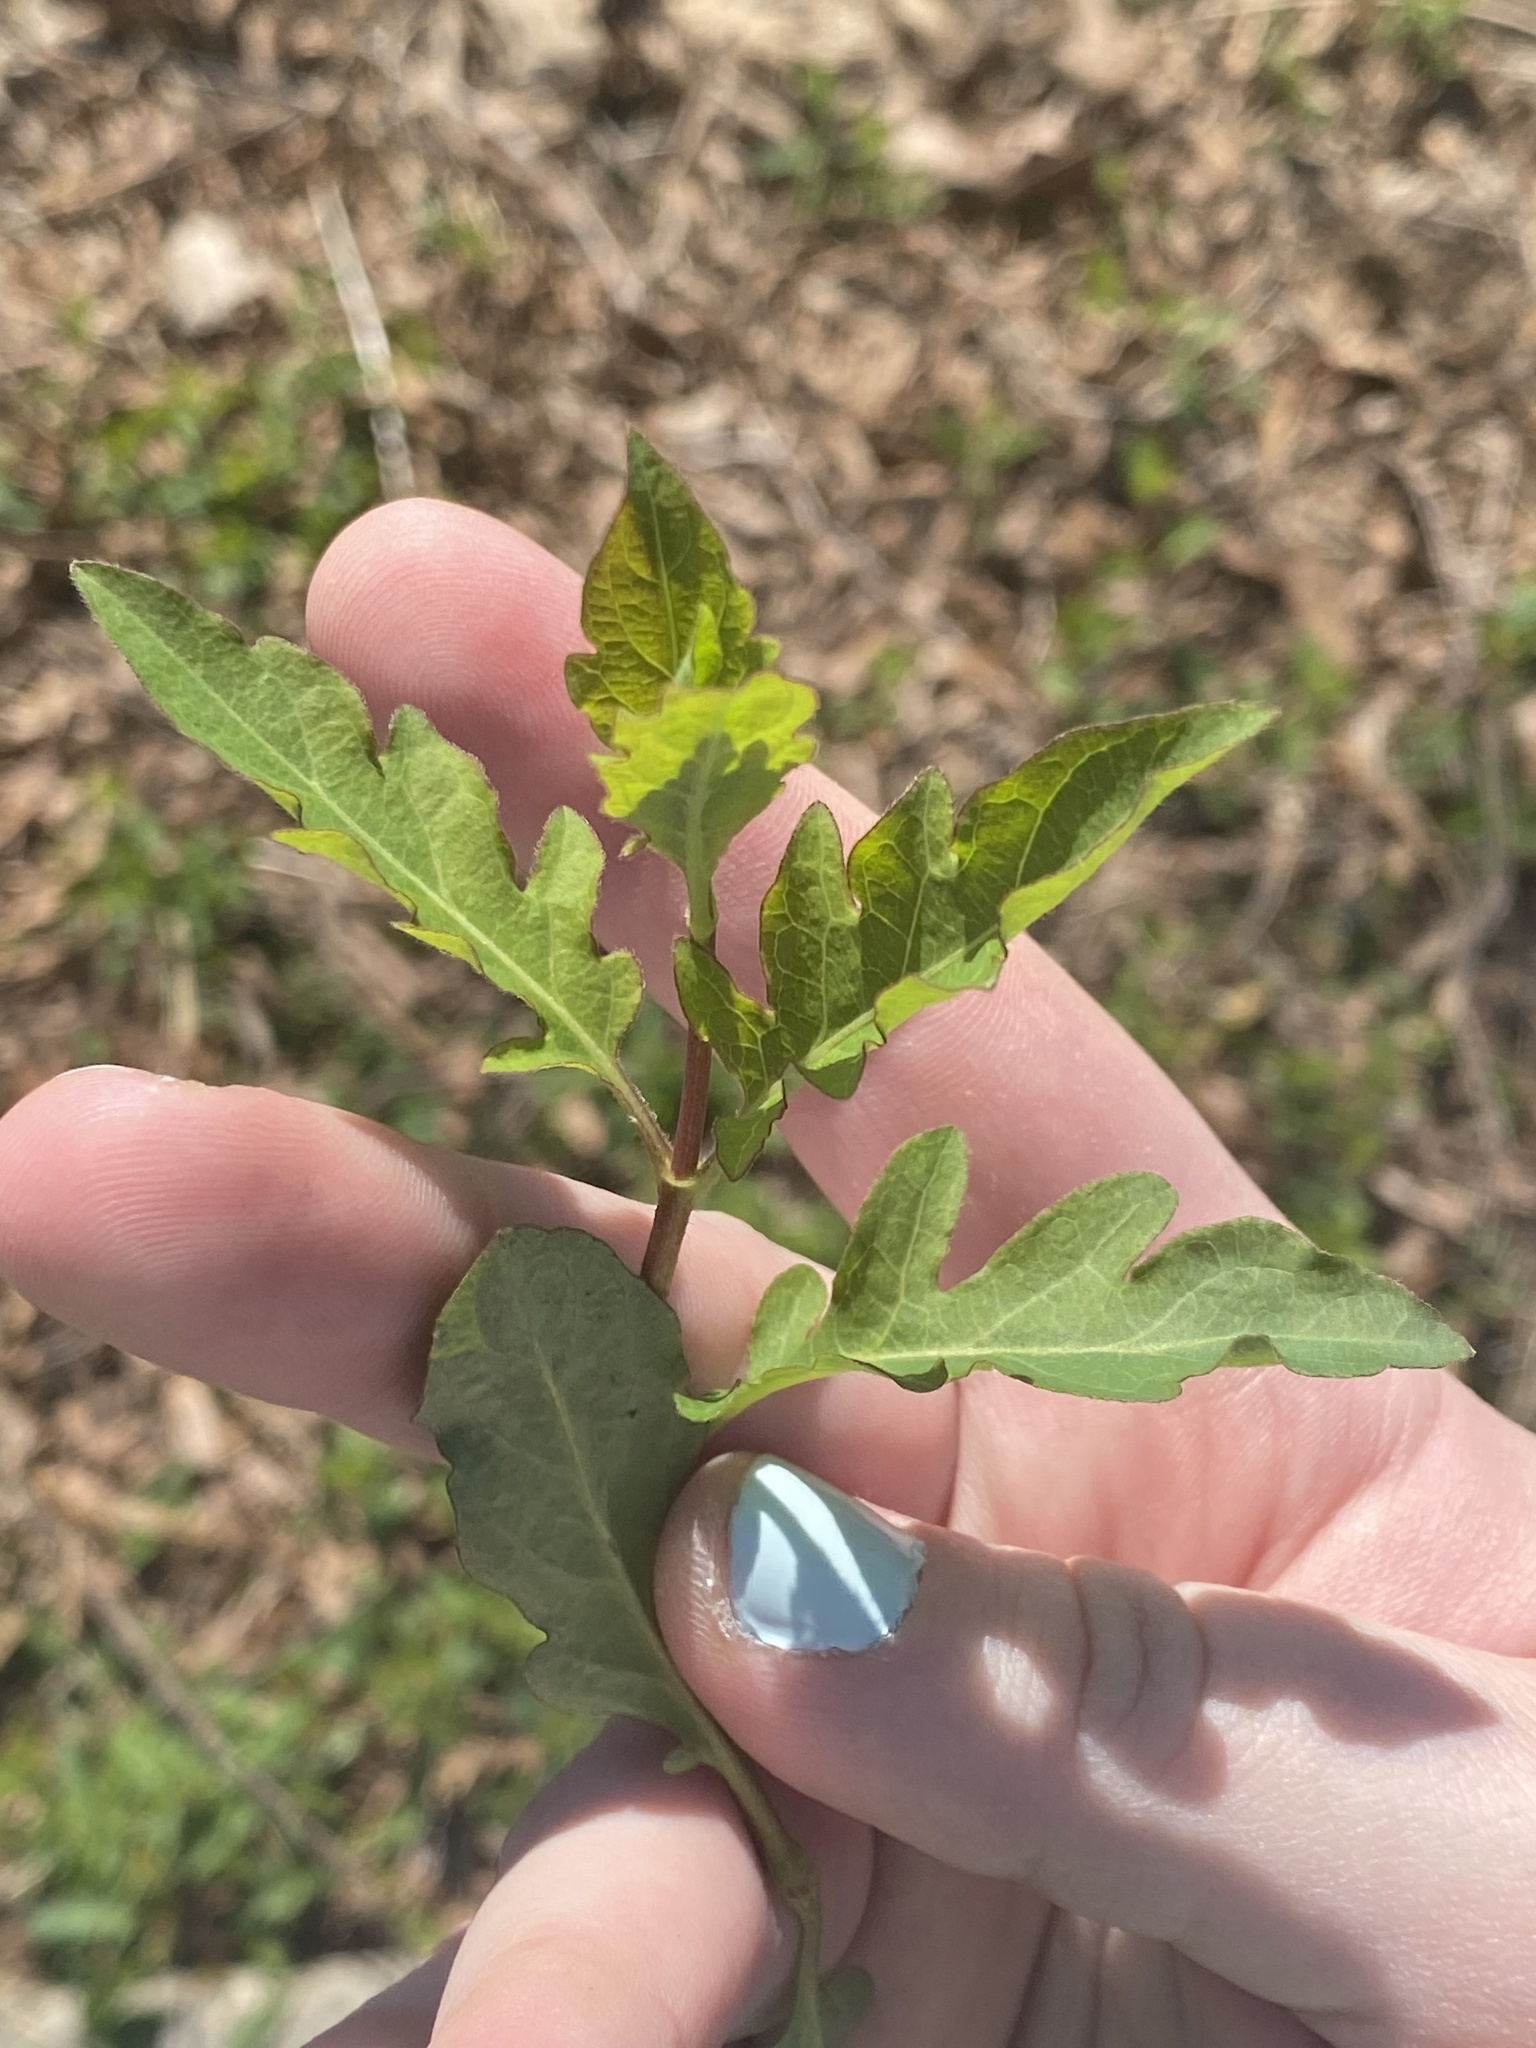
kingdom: Plantae
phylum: Tracheophyta
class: Magnoliopsida
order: Dipsacales
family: Caprifoliaceae
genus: Lonicera
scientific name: Lonicera japonica
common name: Japanese honeysuckle
